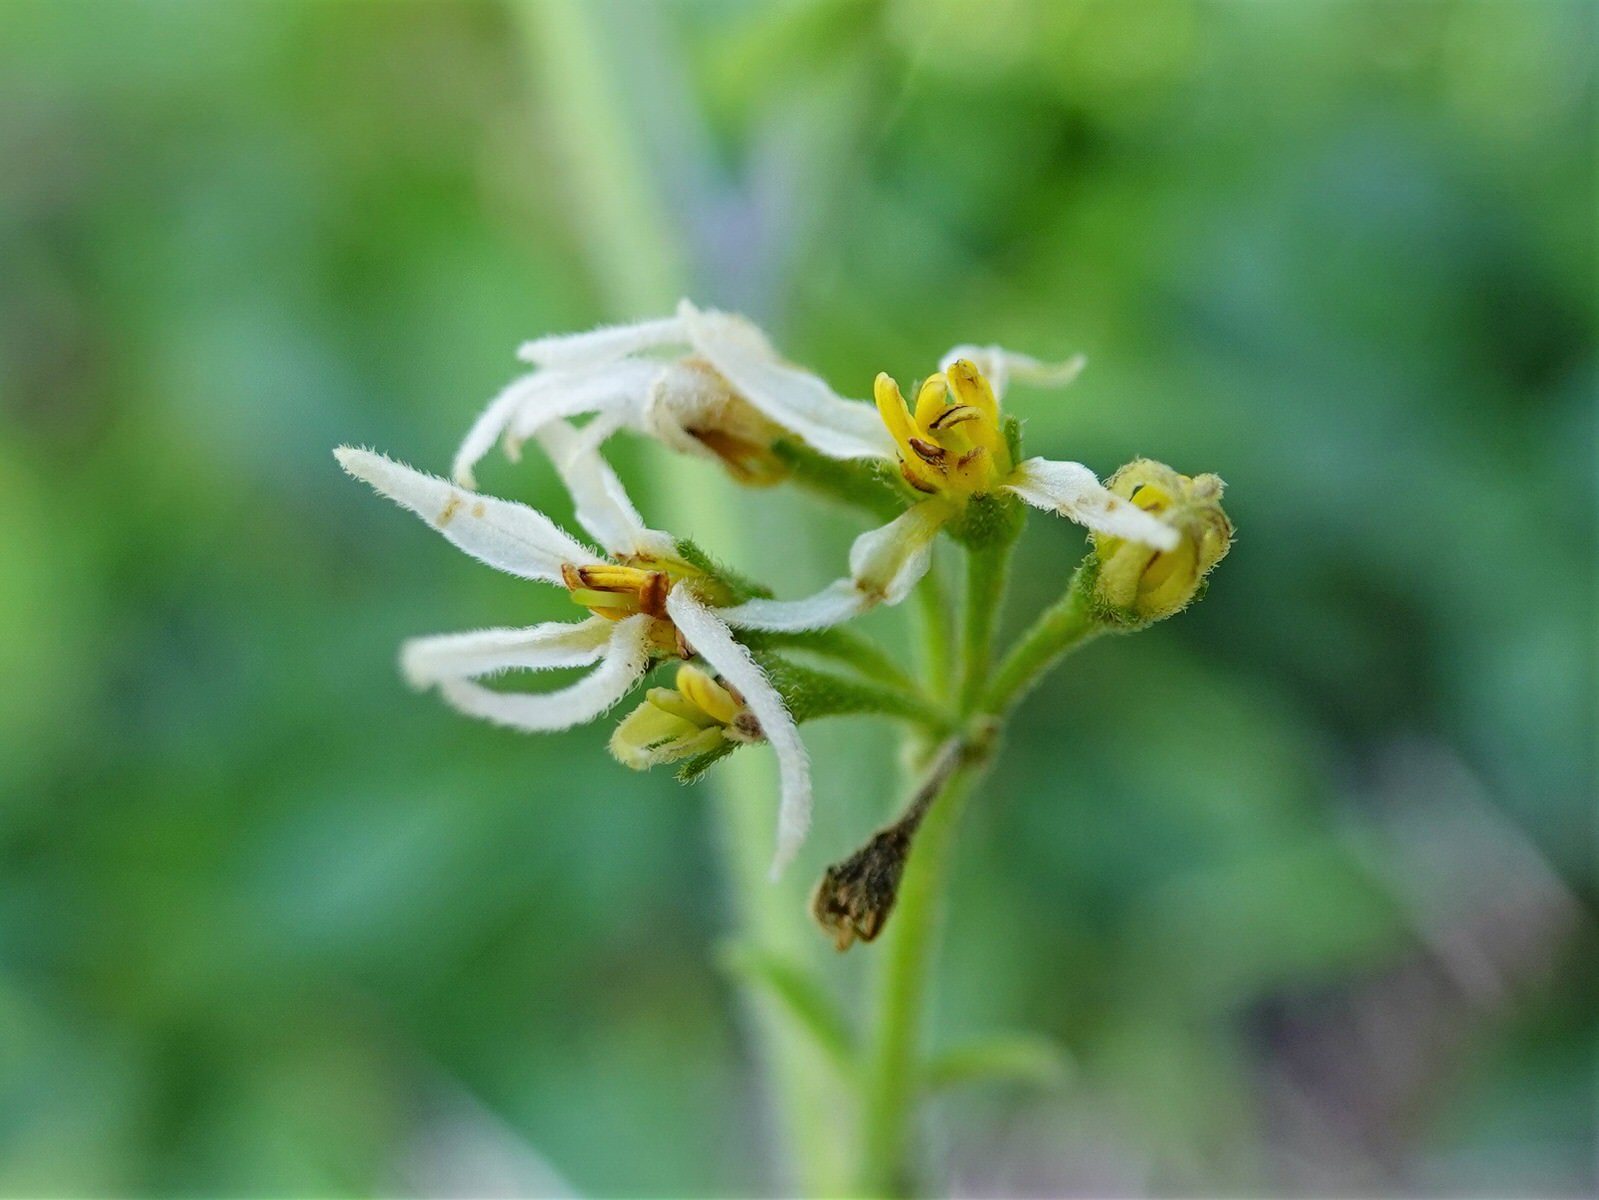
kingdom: Plantae
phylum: Tracheophyta
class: Magnoliopsida
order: Solanales
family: Solanaceae
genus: Solanum
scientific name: Solanum chenopodioides
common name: Tall nightshade
